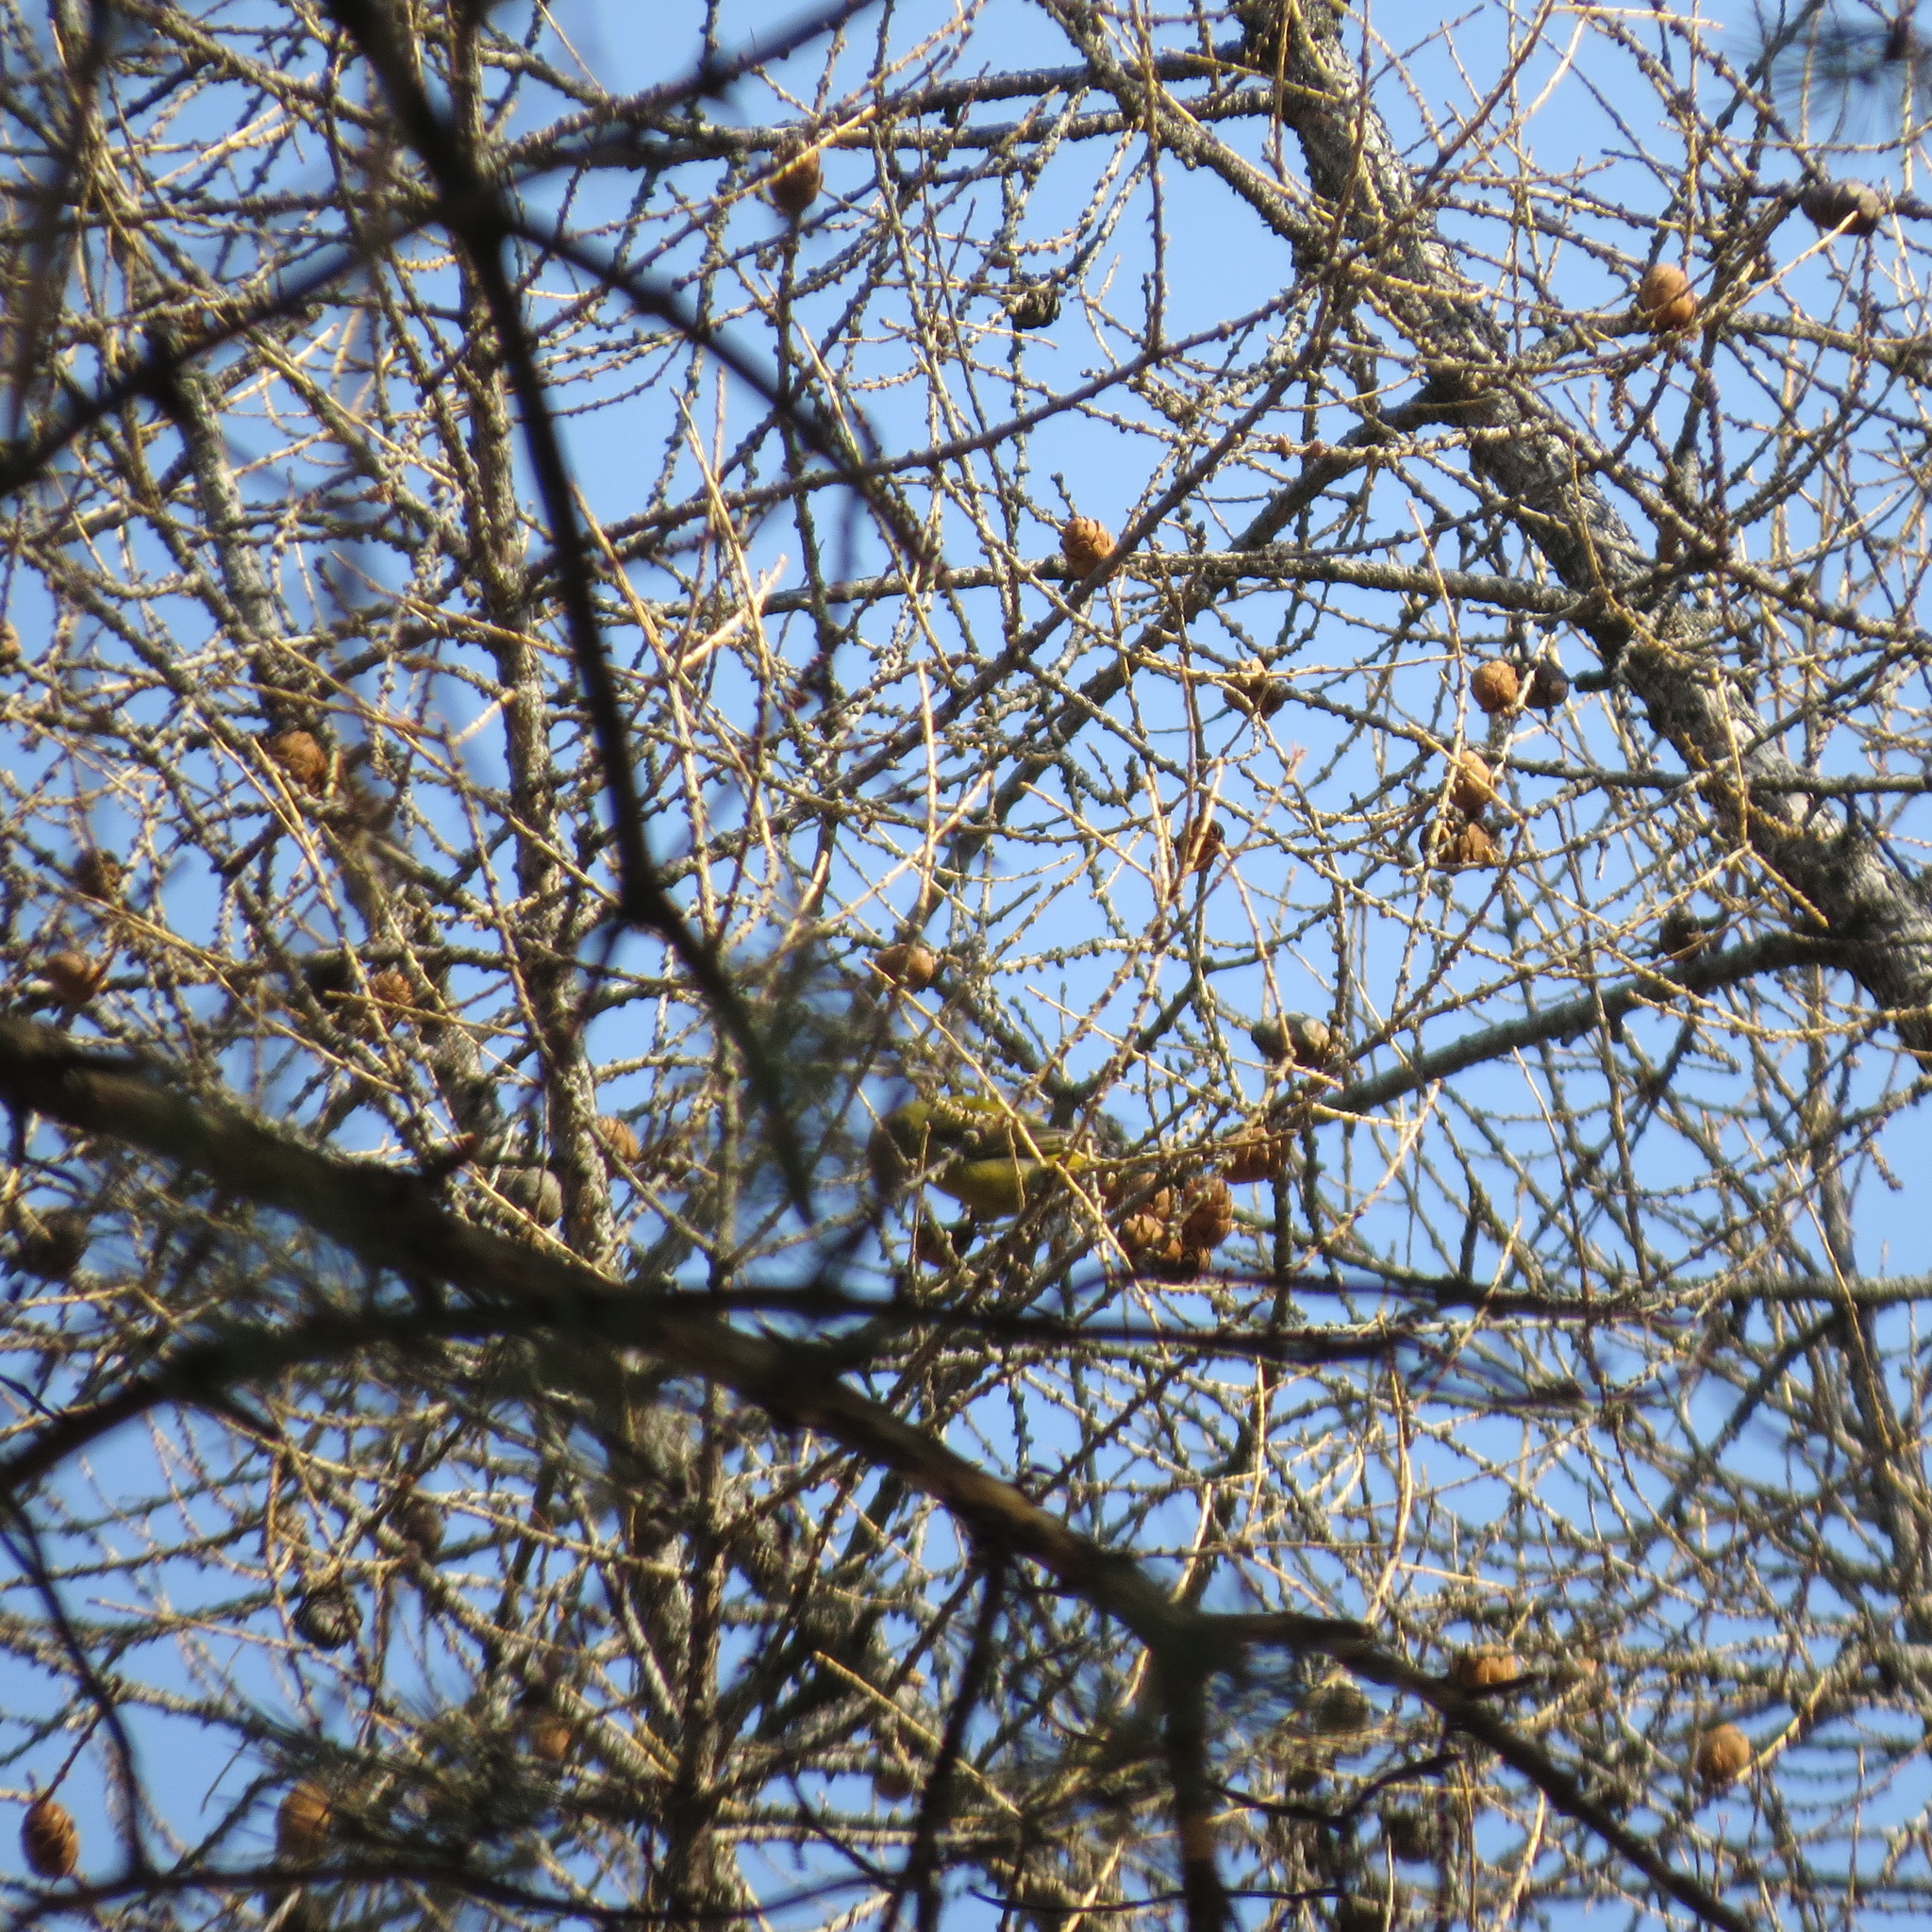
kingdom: Animalia
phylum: Chordata
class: Aves
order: Passeriformes
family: Fringillidae
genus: Loxia
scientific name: Loxia curvirostra
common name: Red crossbill
